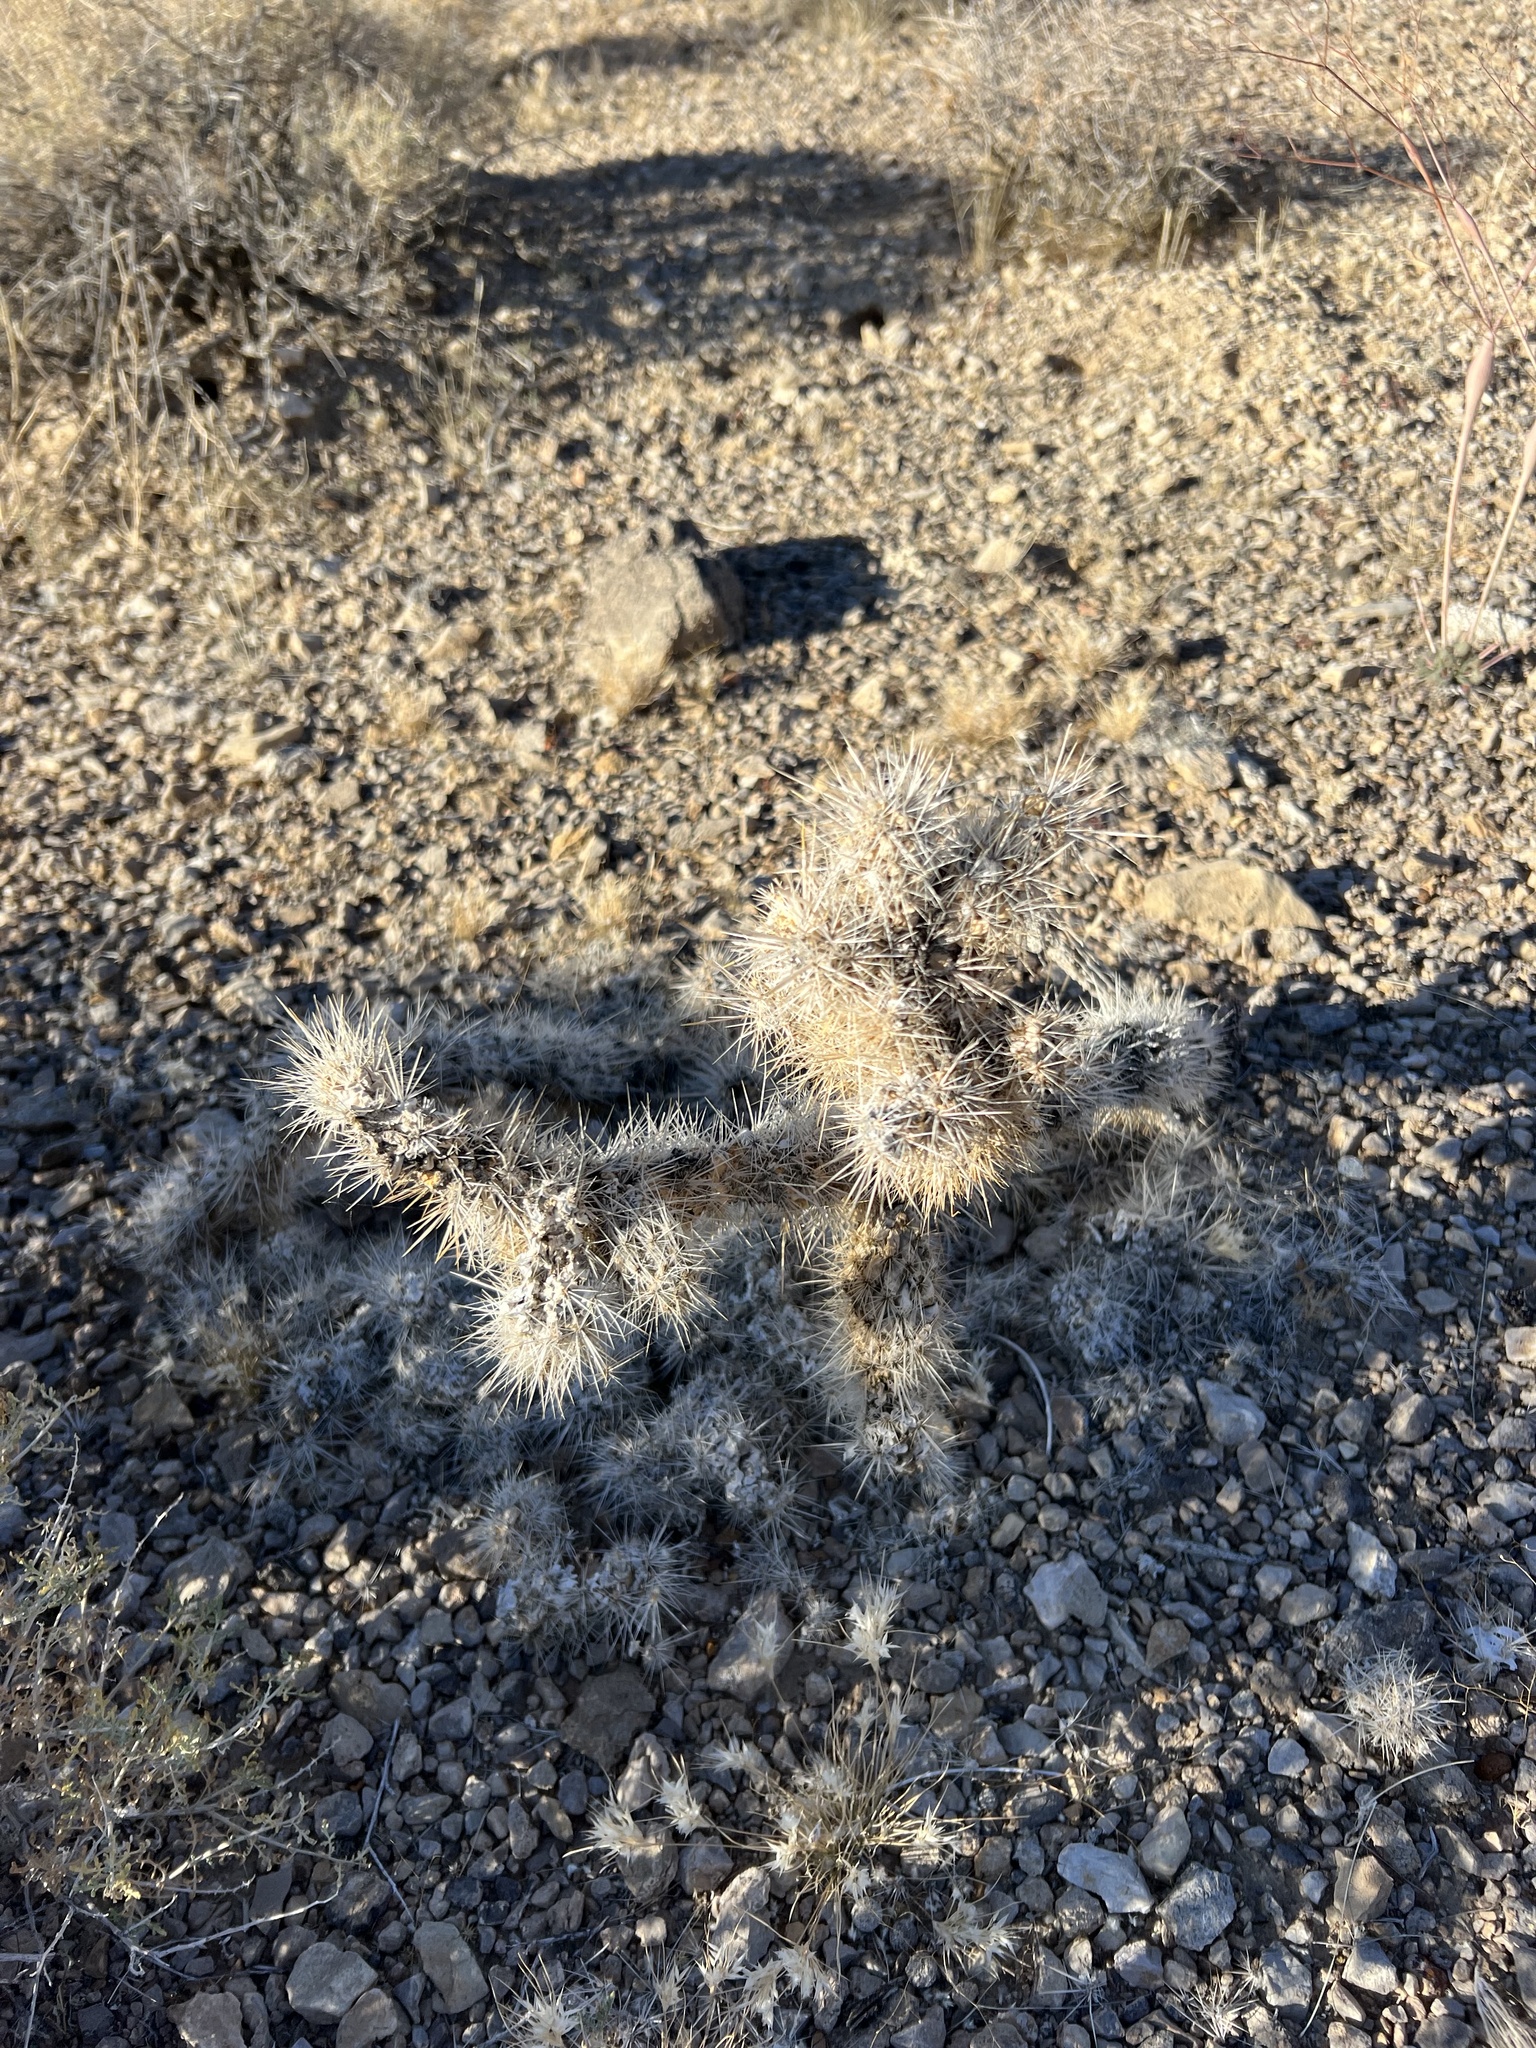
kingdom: Plantae
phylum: Tracheophyta
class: Magnoliopsida
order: Caryophyllales
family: Cactaceae
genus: Cylindropuntia
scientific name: Cylindropuntia echinocarpa
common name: Ground cholla
